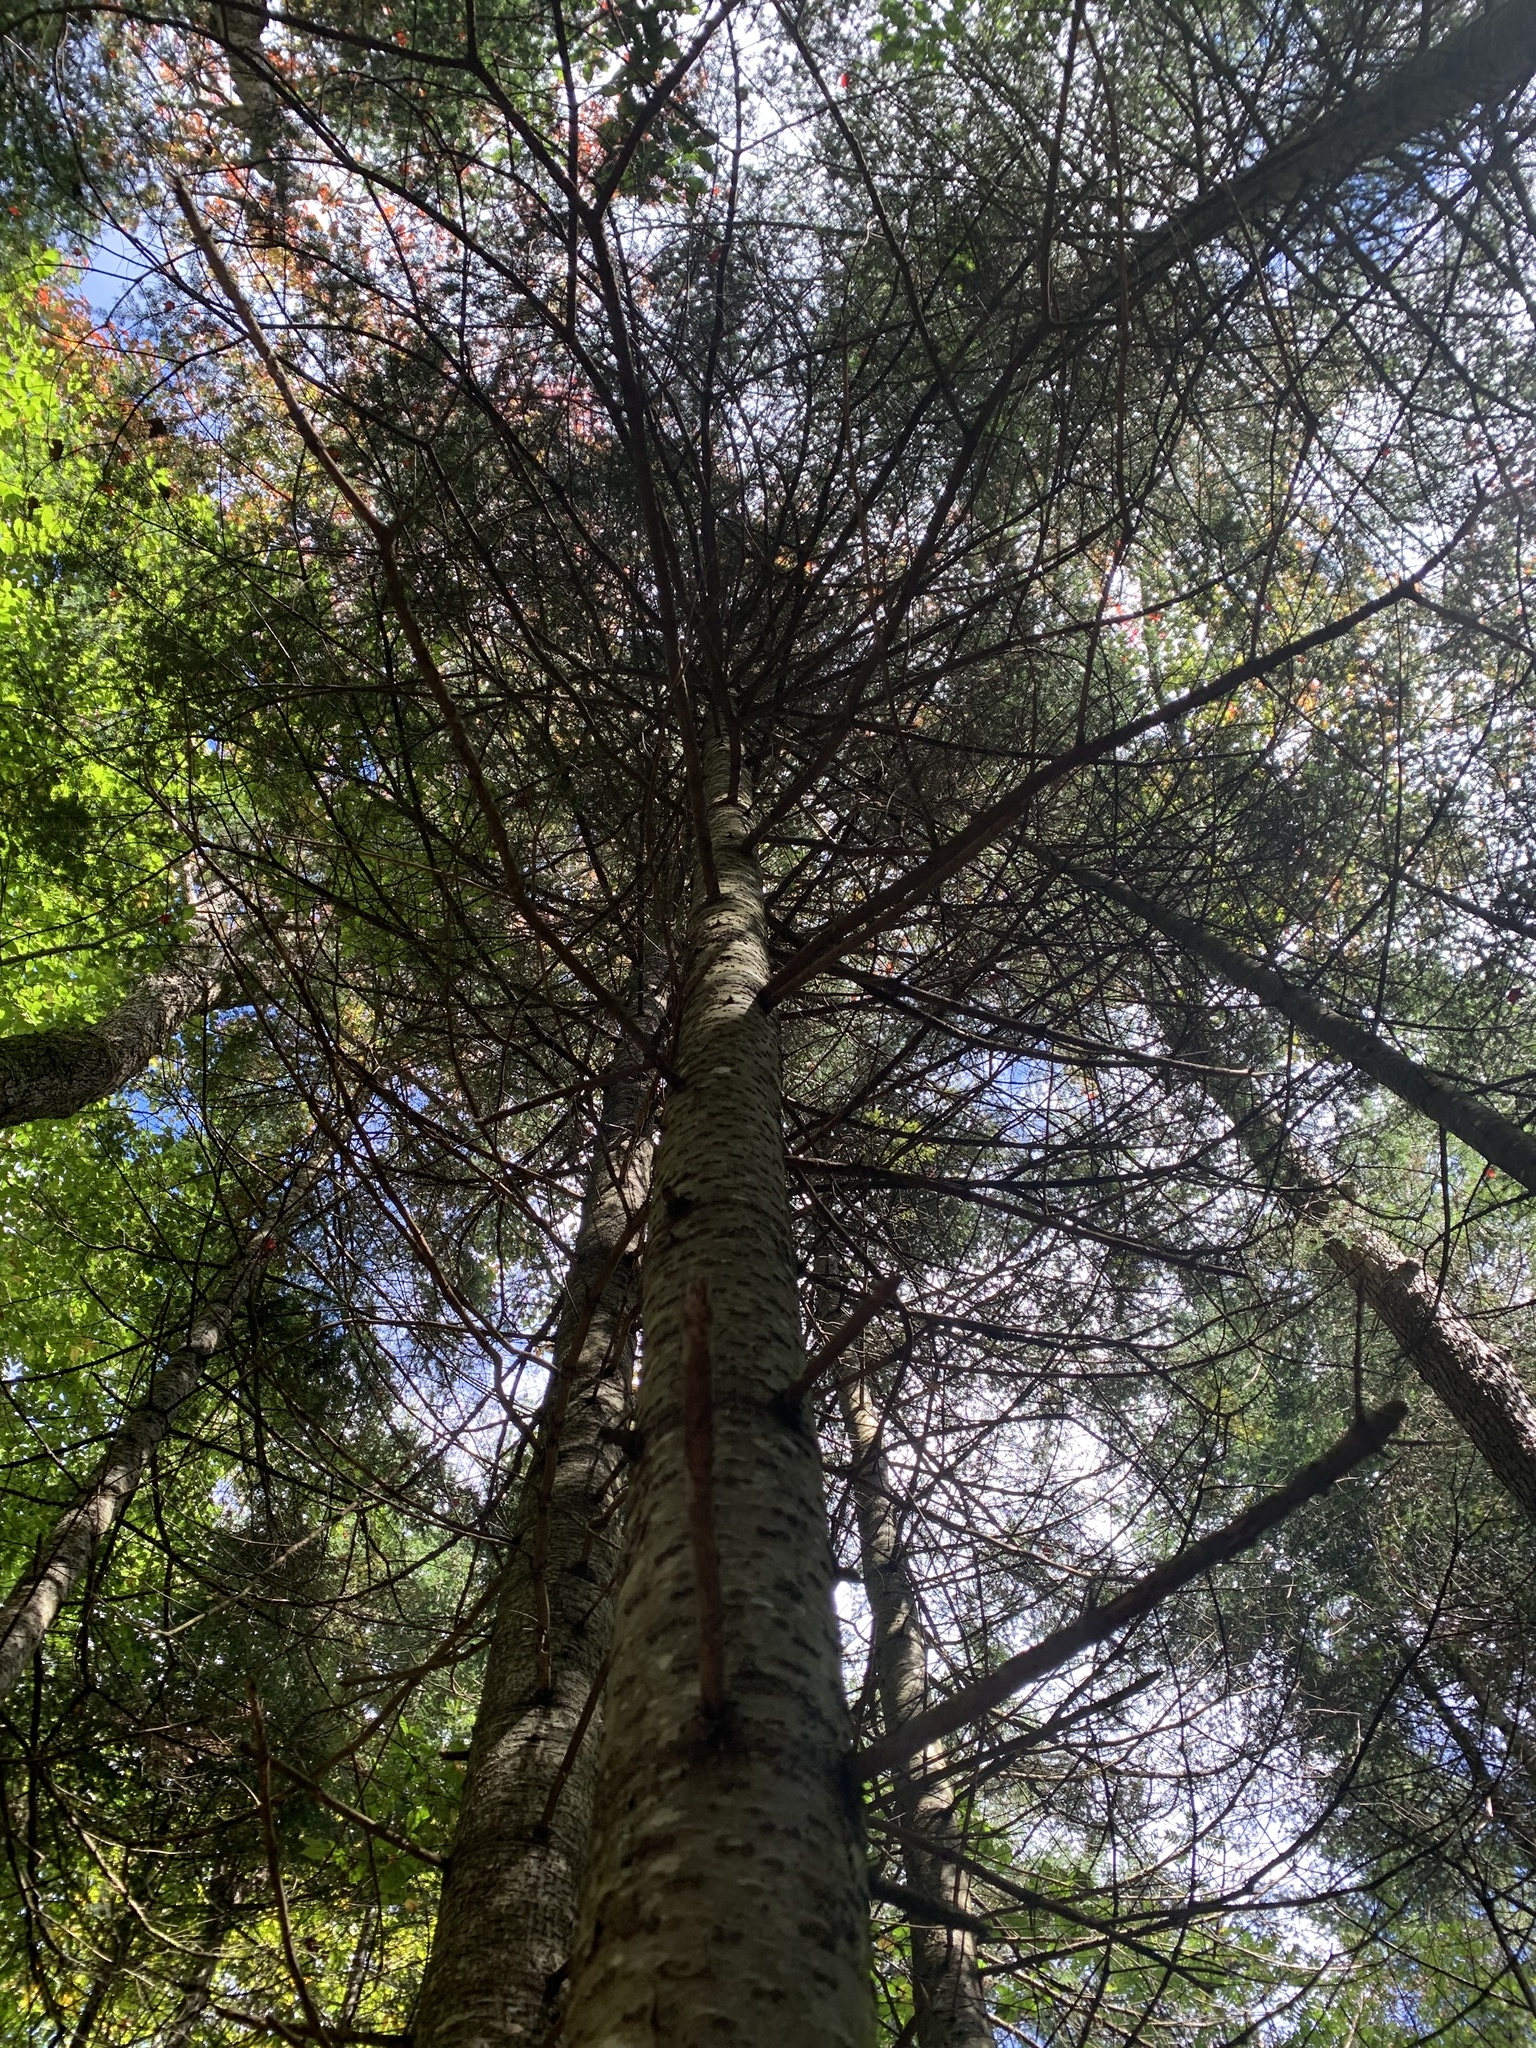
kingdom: Plantae
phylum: Tracheophyta
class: Pinopsida
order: Pinales
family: Pinaceae
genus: Abies
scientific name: Abies balsamea
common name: Balsam fir
